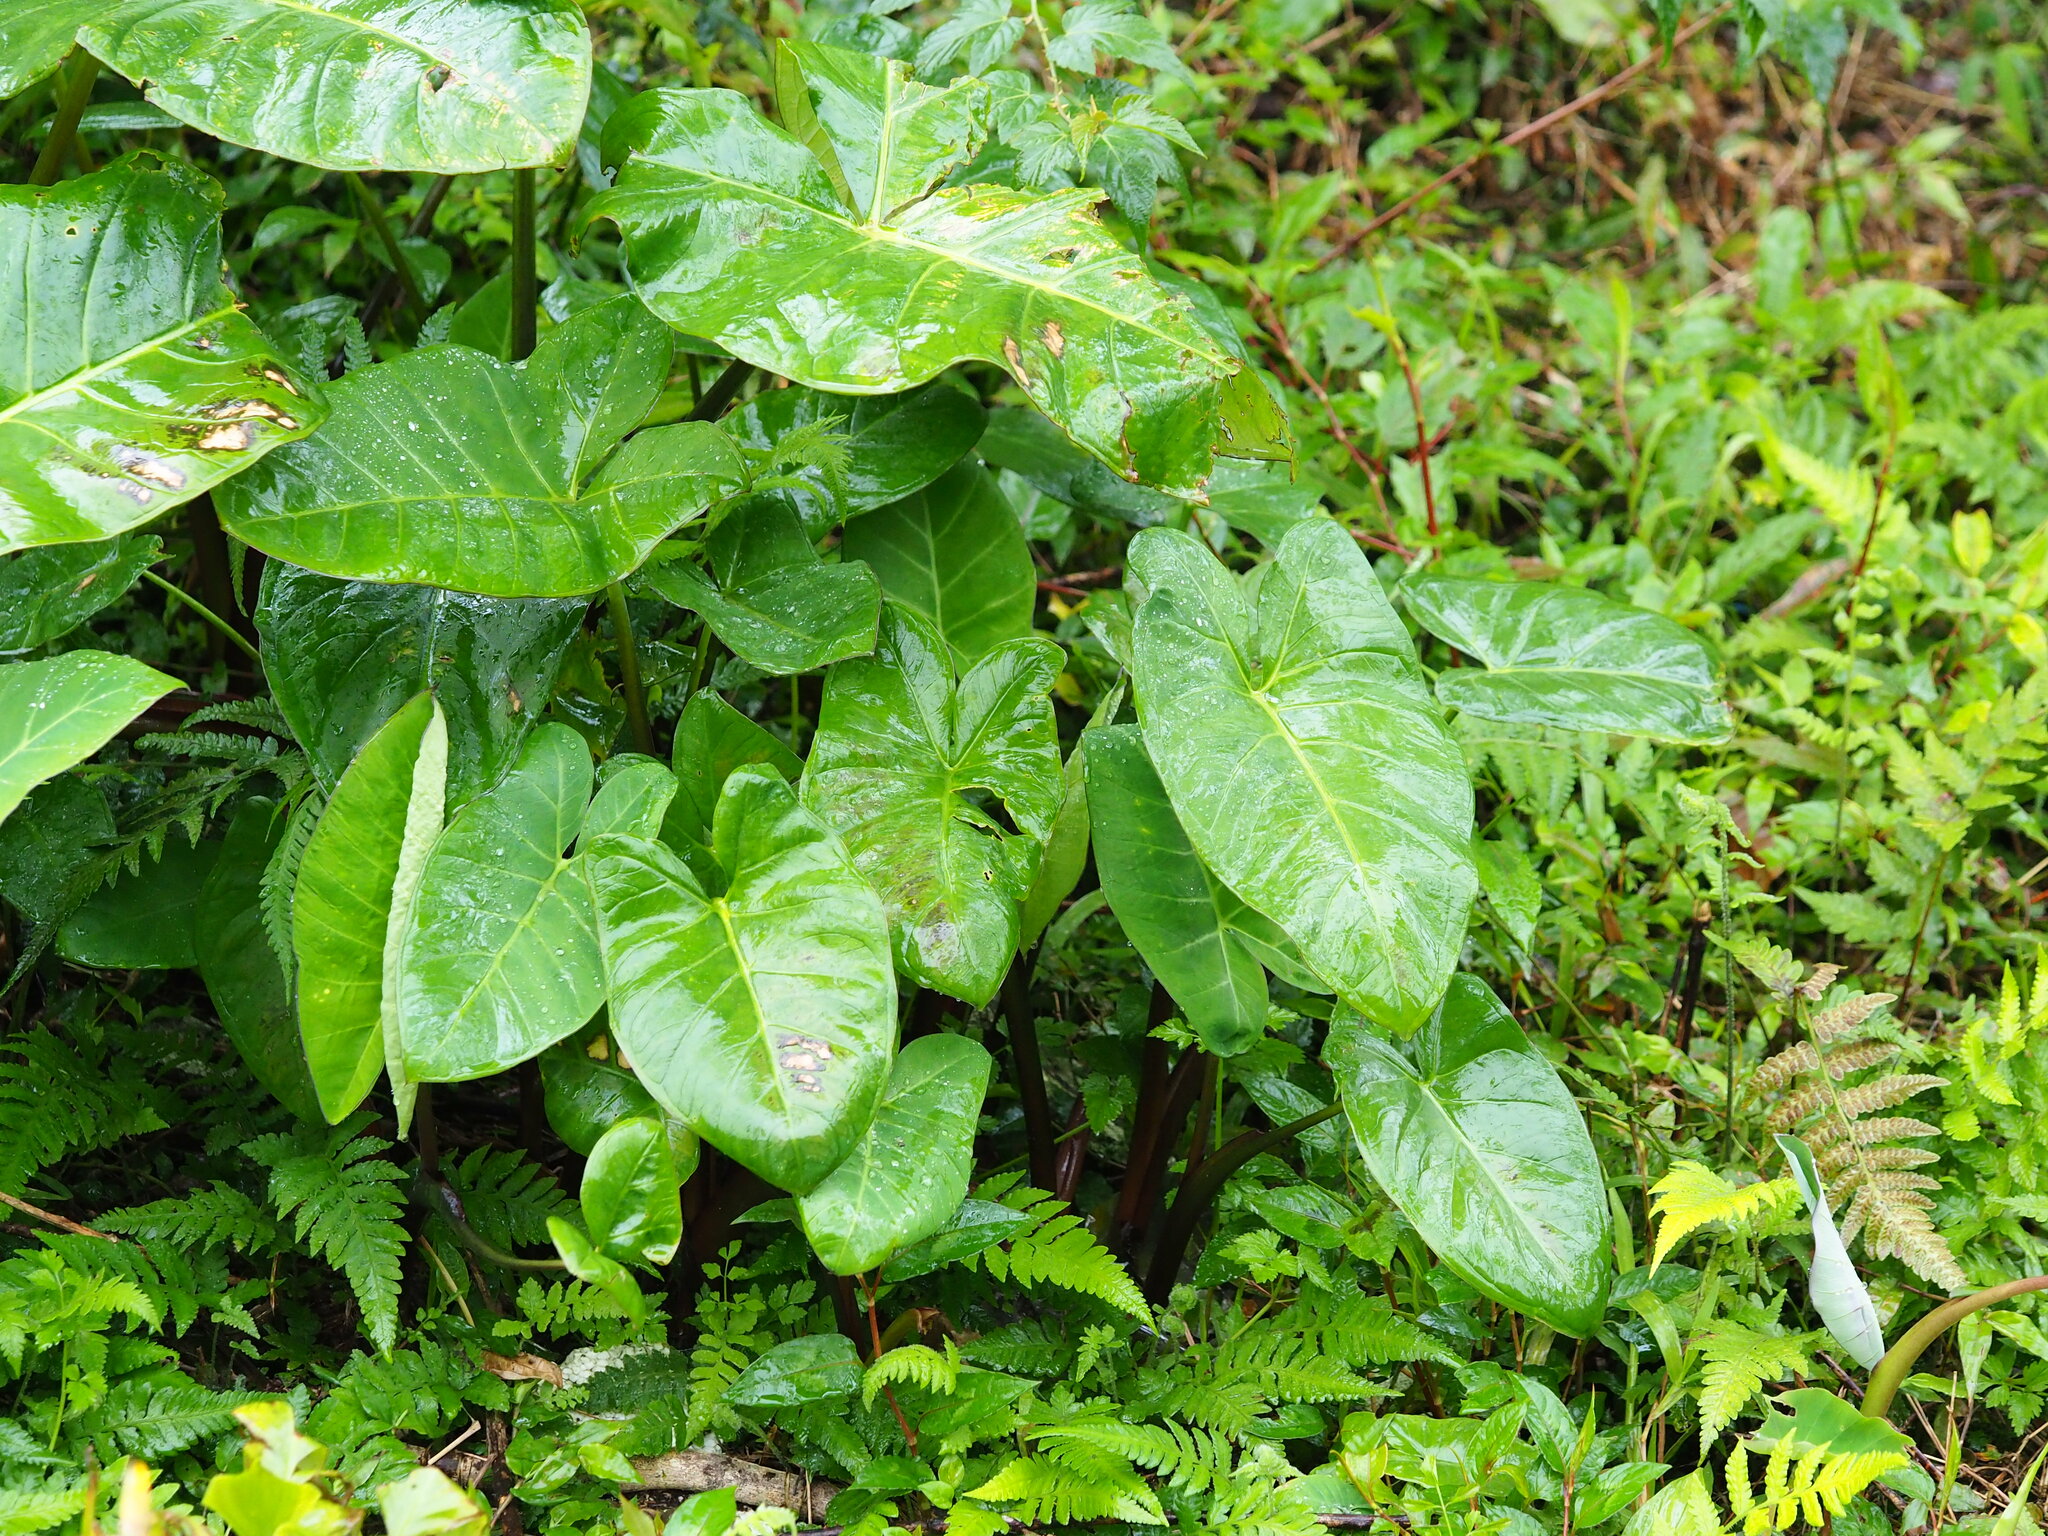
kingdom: Plantae
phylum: Tracheophyta
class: Liliopsida
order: Alismatales
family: Araceae
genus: Xanthosoma
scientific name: Xanthosoma sagittifolium
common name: Arrowleaf elephant's ear
